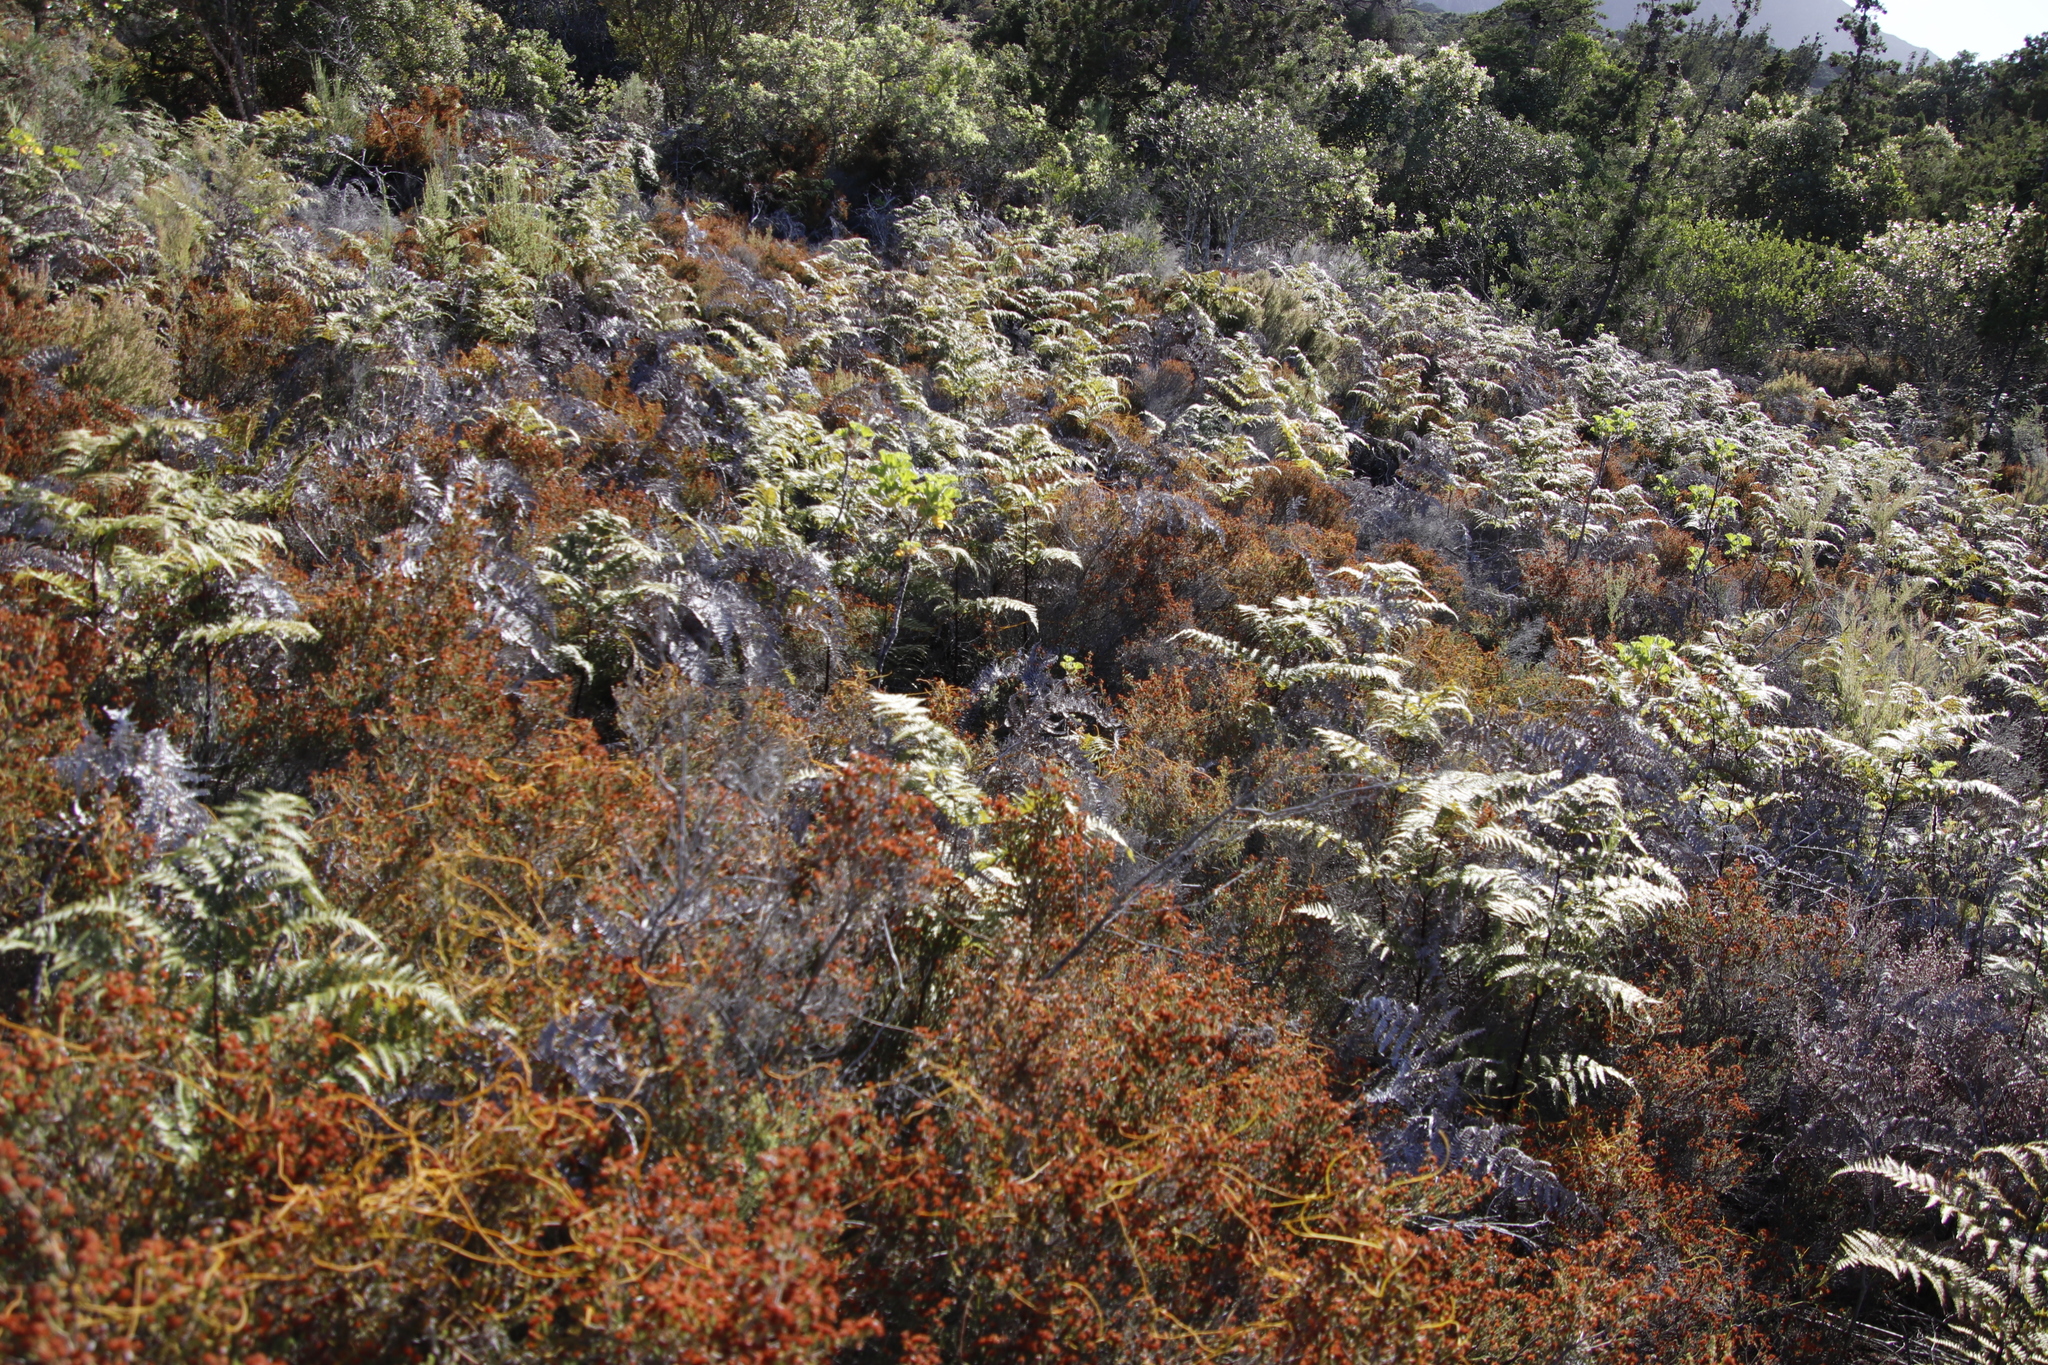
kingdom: Plantae
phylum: Tracheophyta
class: Magnoliopsida
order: Ericales
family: Ericaceae
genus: Erica
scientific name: Erica ericoides
